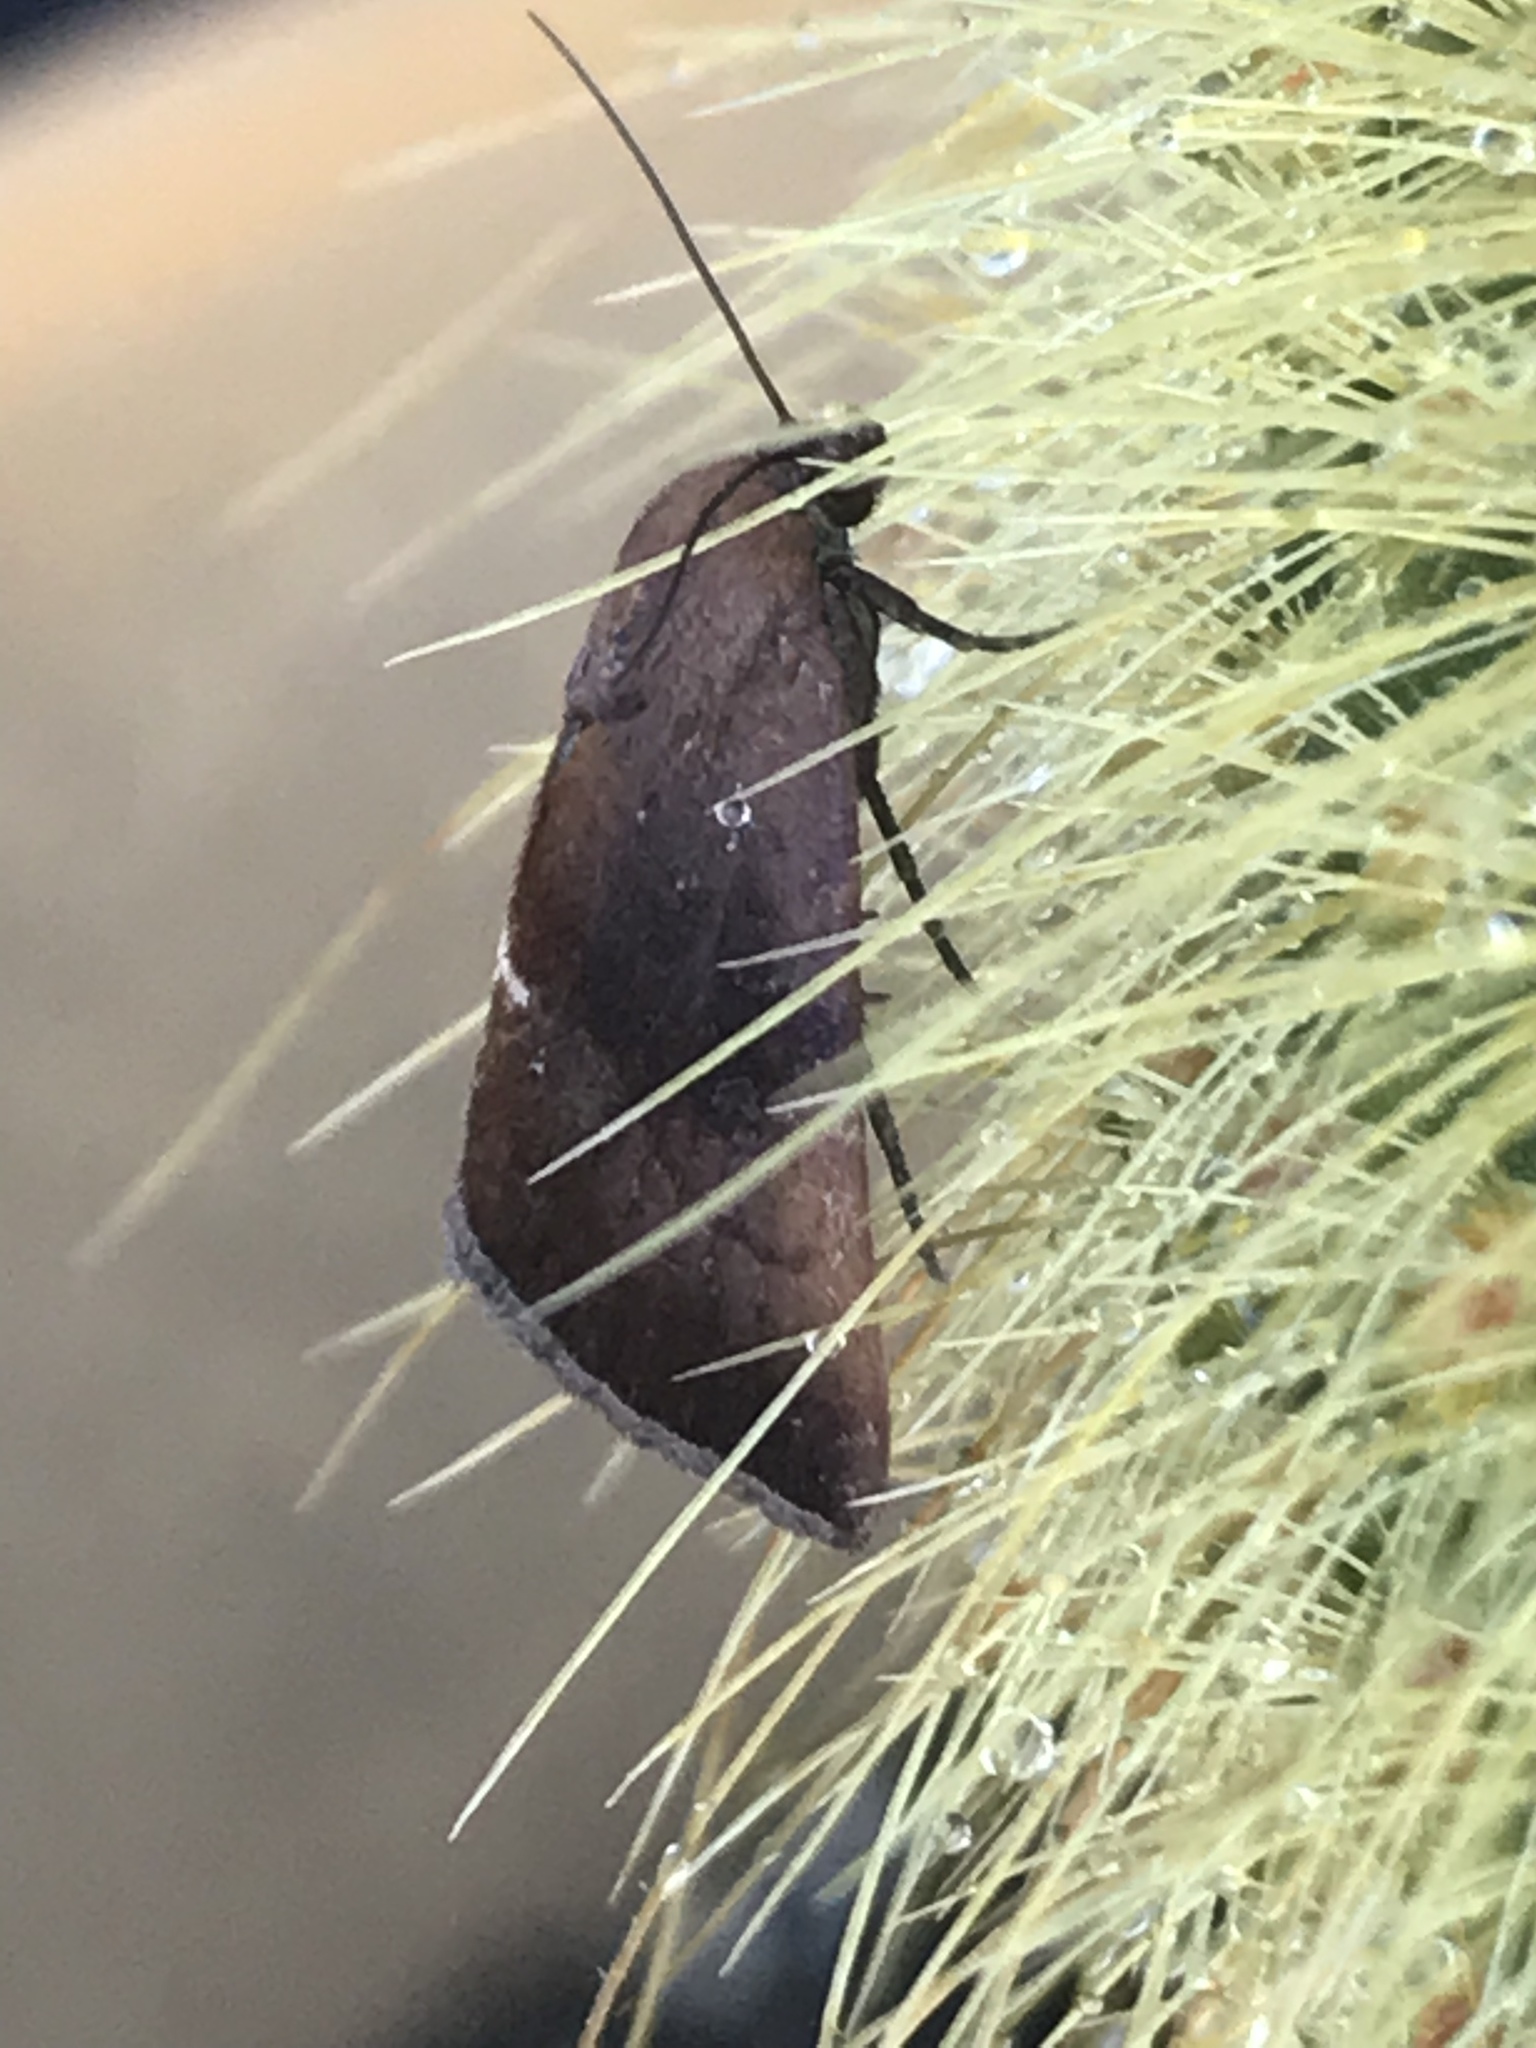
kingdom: Animalia
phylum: Arthropoda
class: Insecta
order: Lepidoptera
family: Noctuidae
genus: Galgula
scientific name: Galgula partita
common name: Wedgeling
